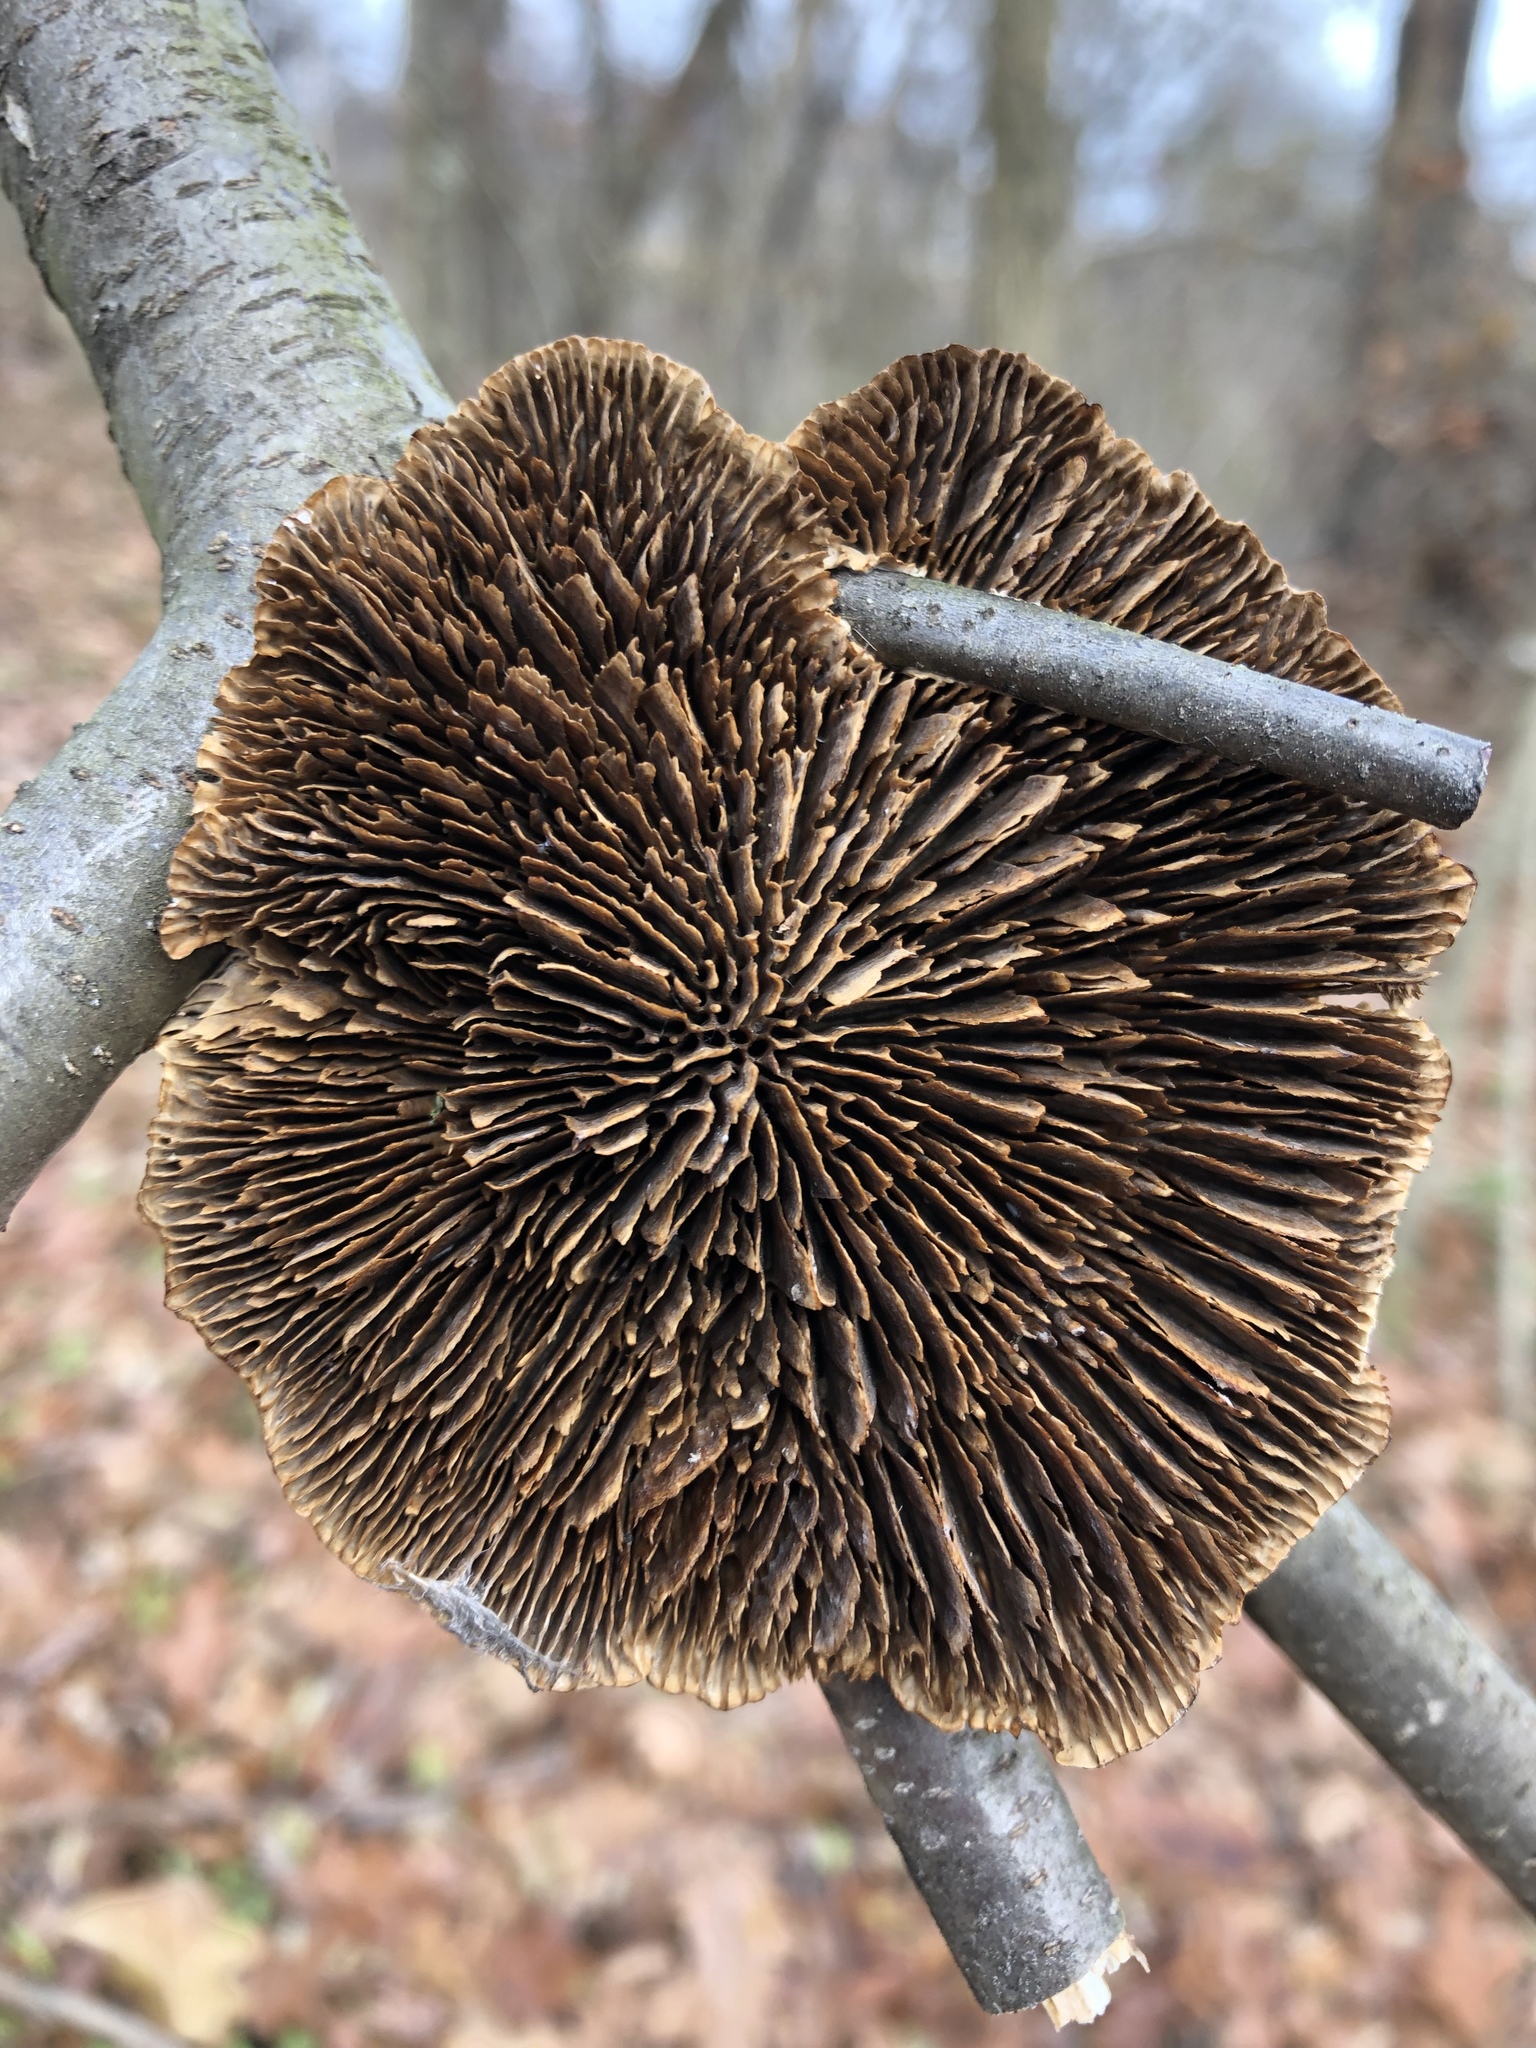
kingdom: Fungi
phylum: Basidiomycota
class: Agaricomycetes
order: Polyporales
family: Polyporaceae
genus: Daedaleopsis
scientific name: Daedaleopsis confragosa
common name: Blushing bracket
